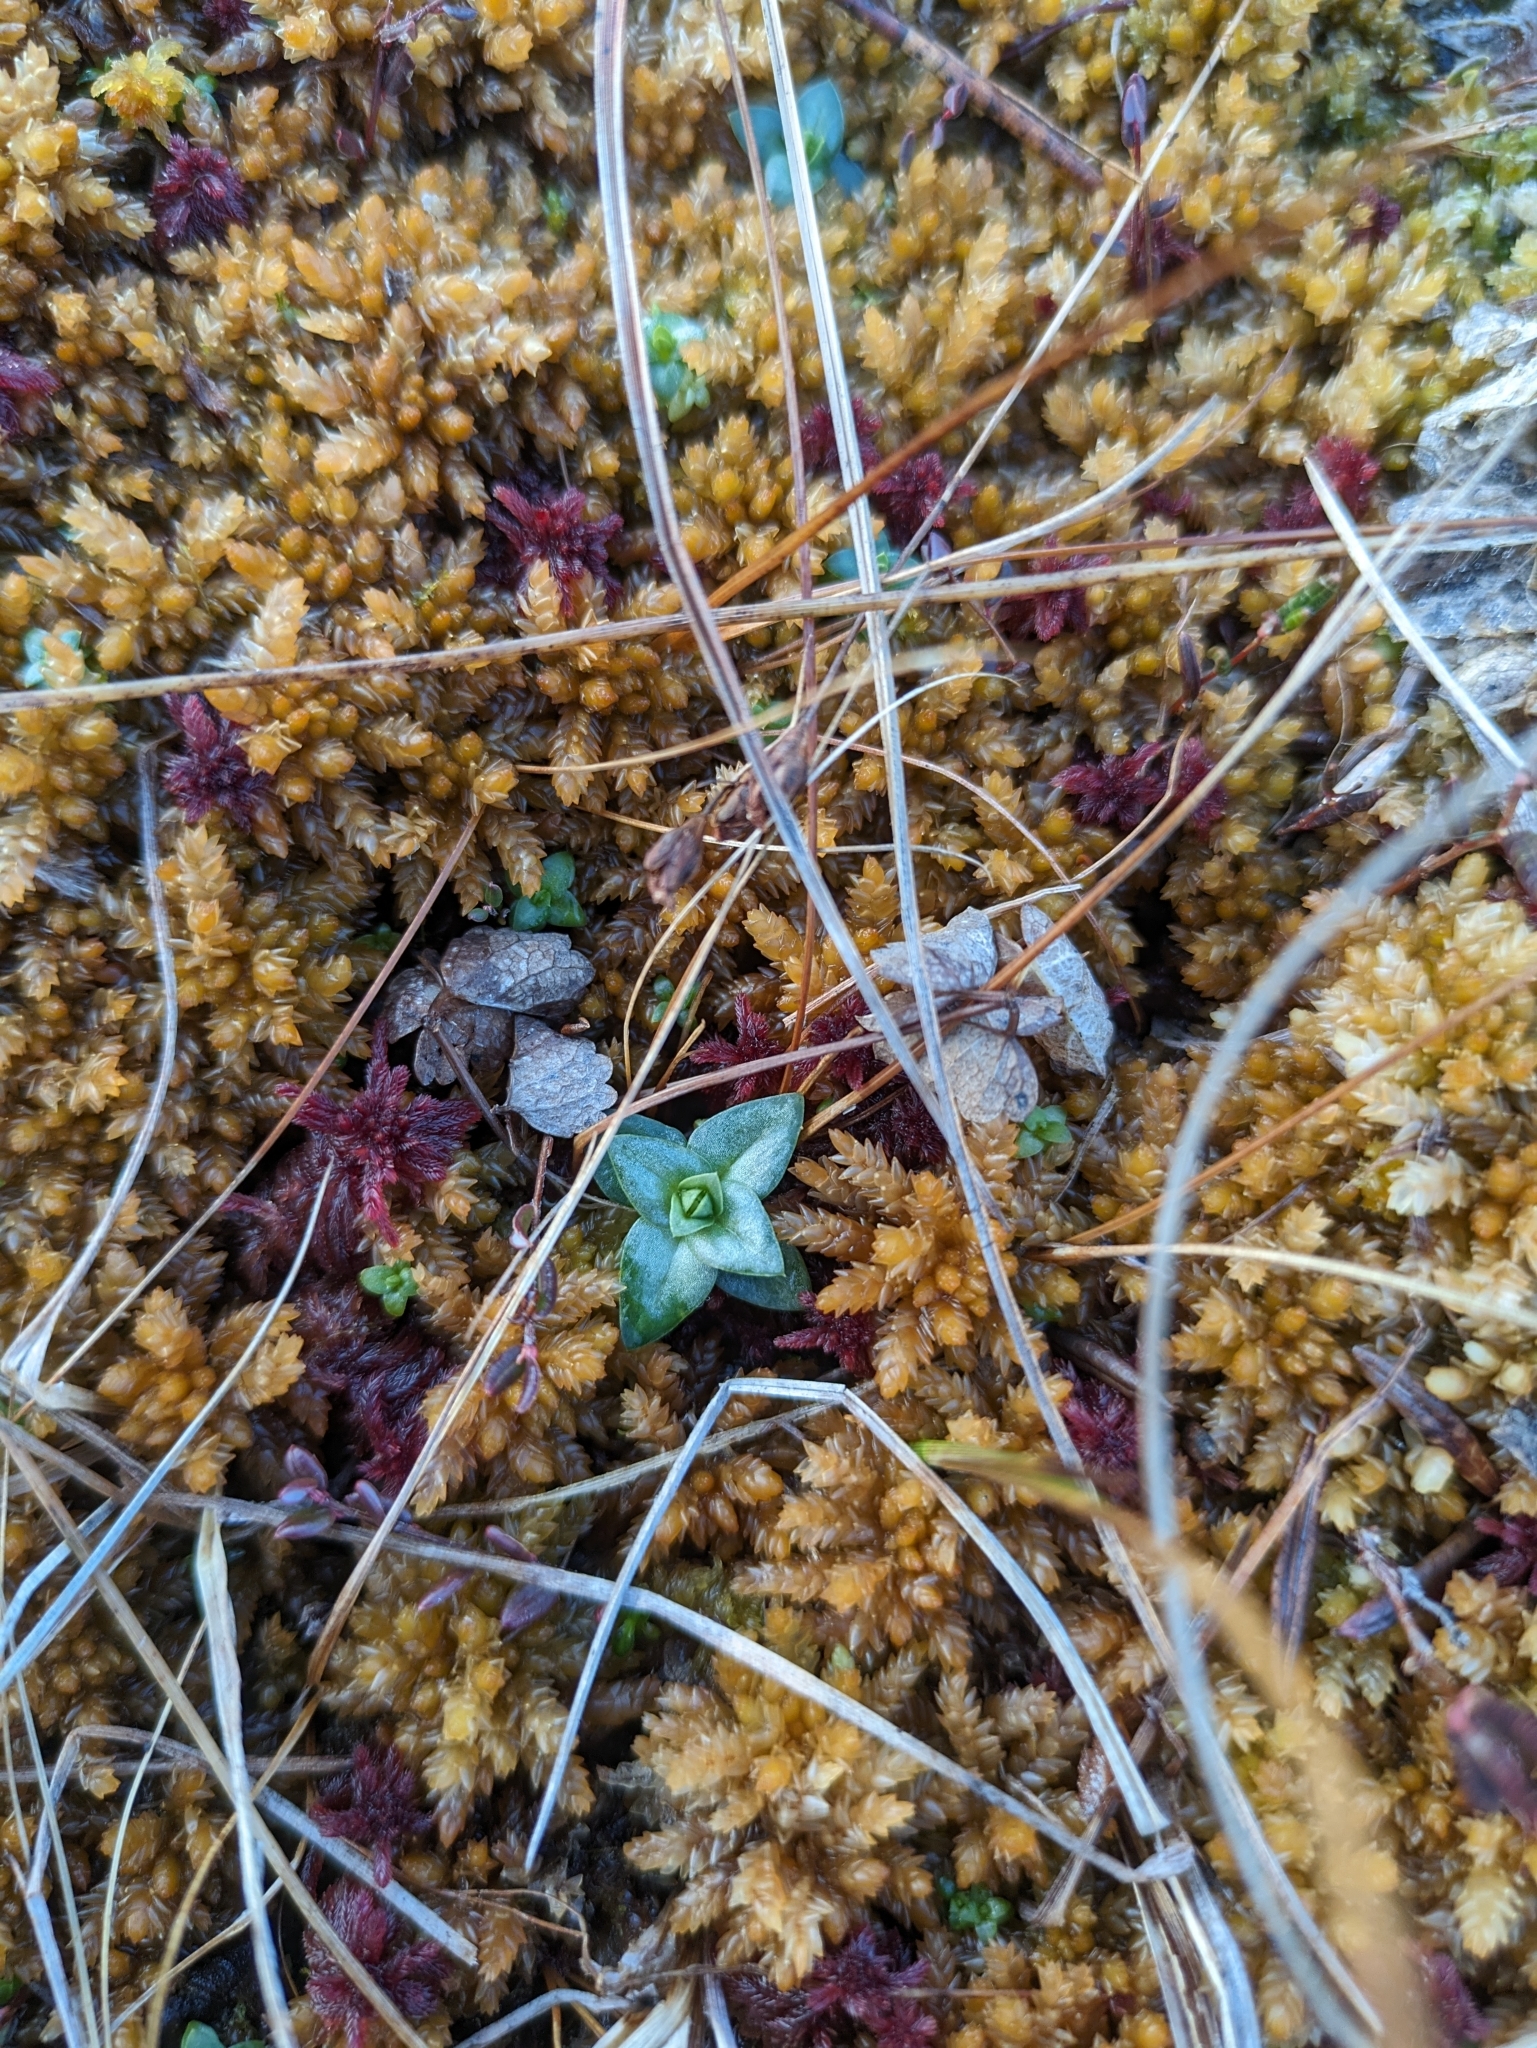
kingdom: Plantae
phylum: Tracheophyta
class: Magnoliopsida
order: Gentianales
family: Gentianaceae
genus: Gentiana
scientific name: Gentiana douglasiana
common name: Swamp gentian
